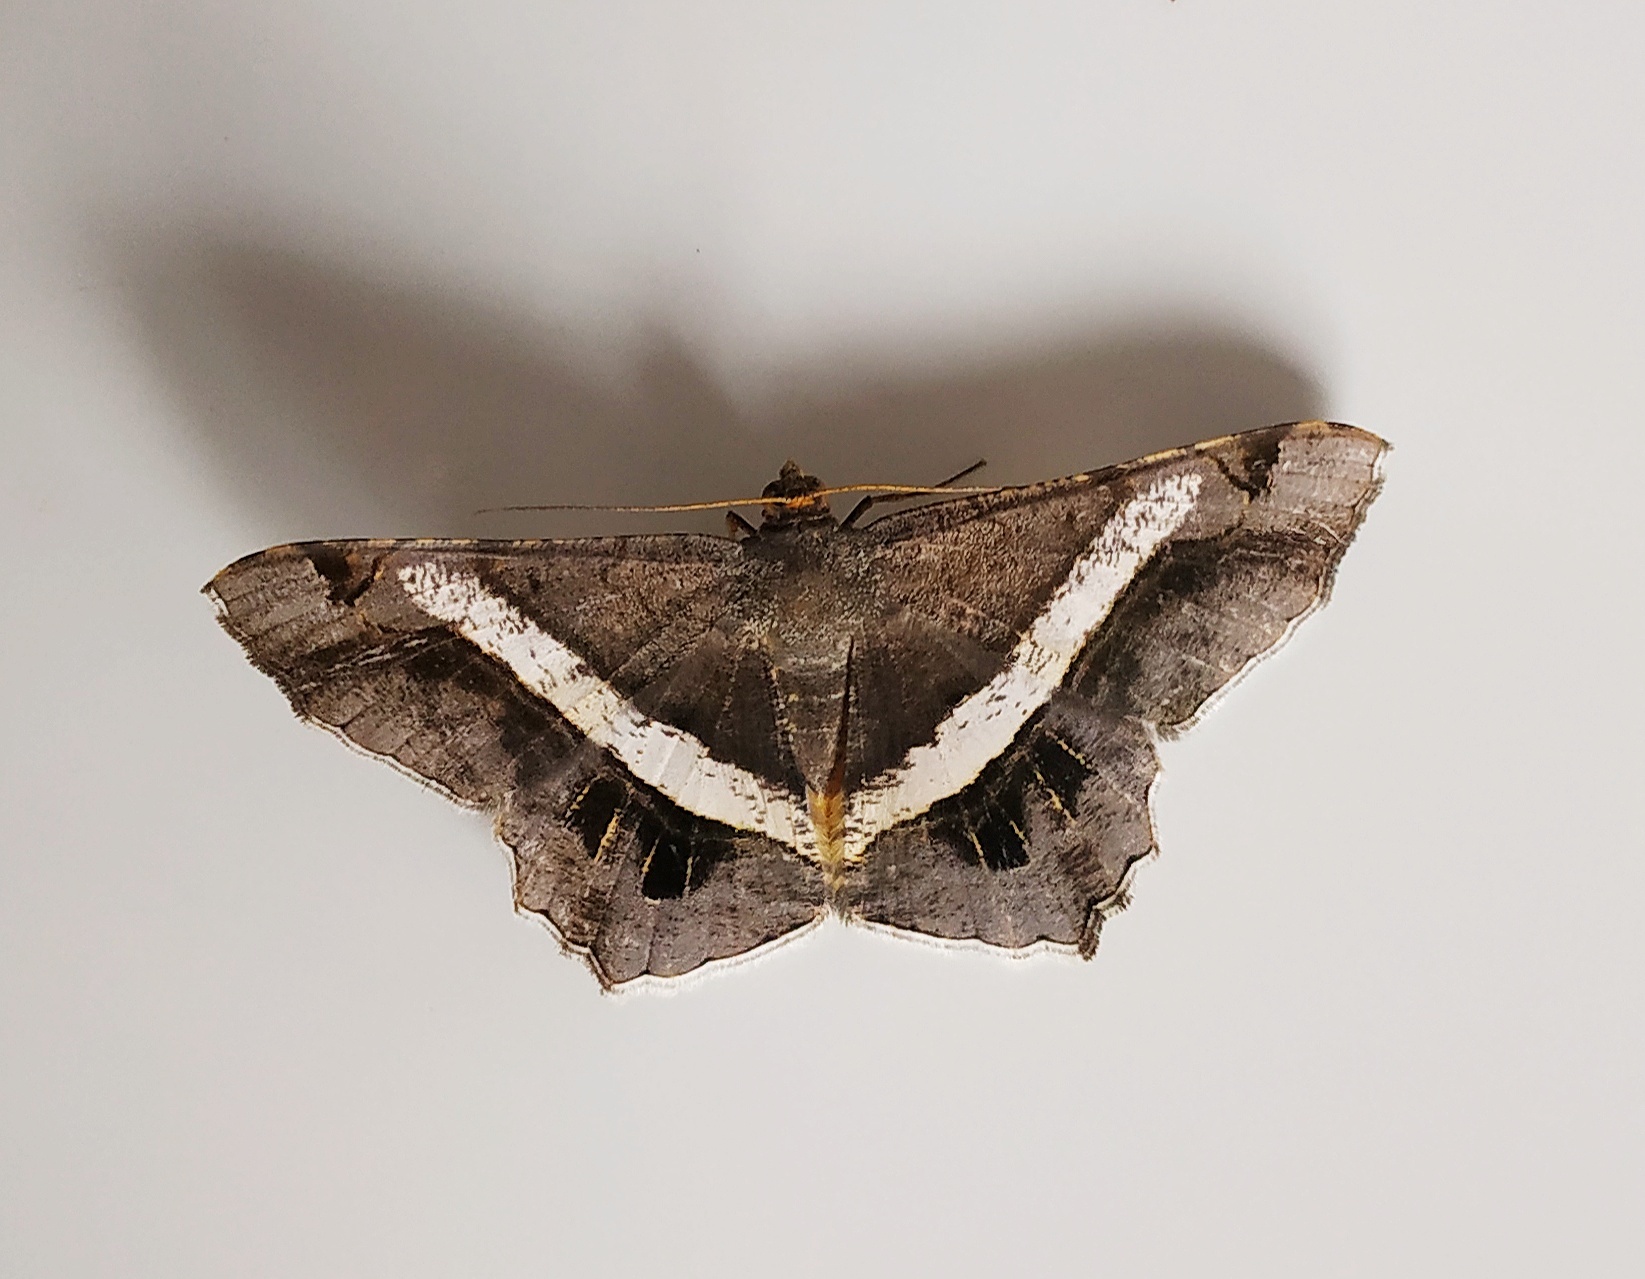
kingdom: Animalia
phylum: Arthropoda
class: Insecta
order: Lepidoptera
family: Geometridae
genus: Chiasmia
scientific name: Chiasmia nora
